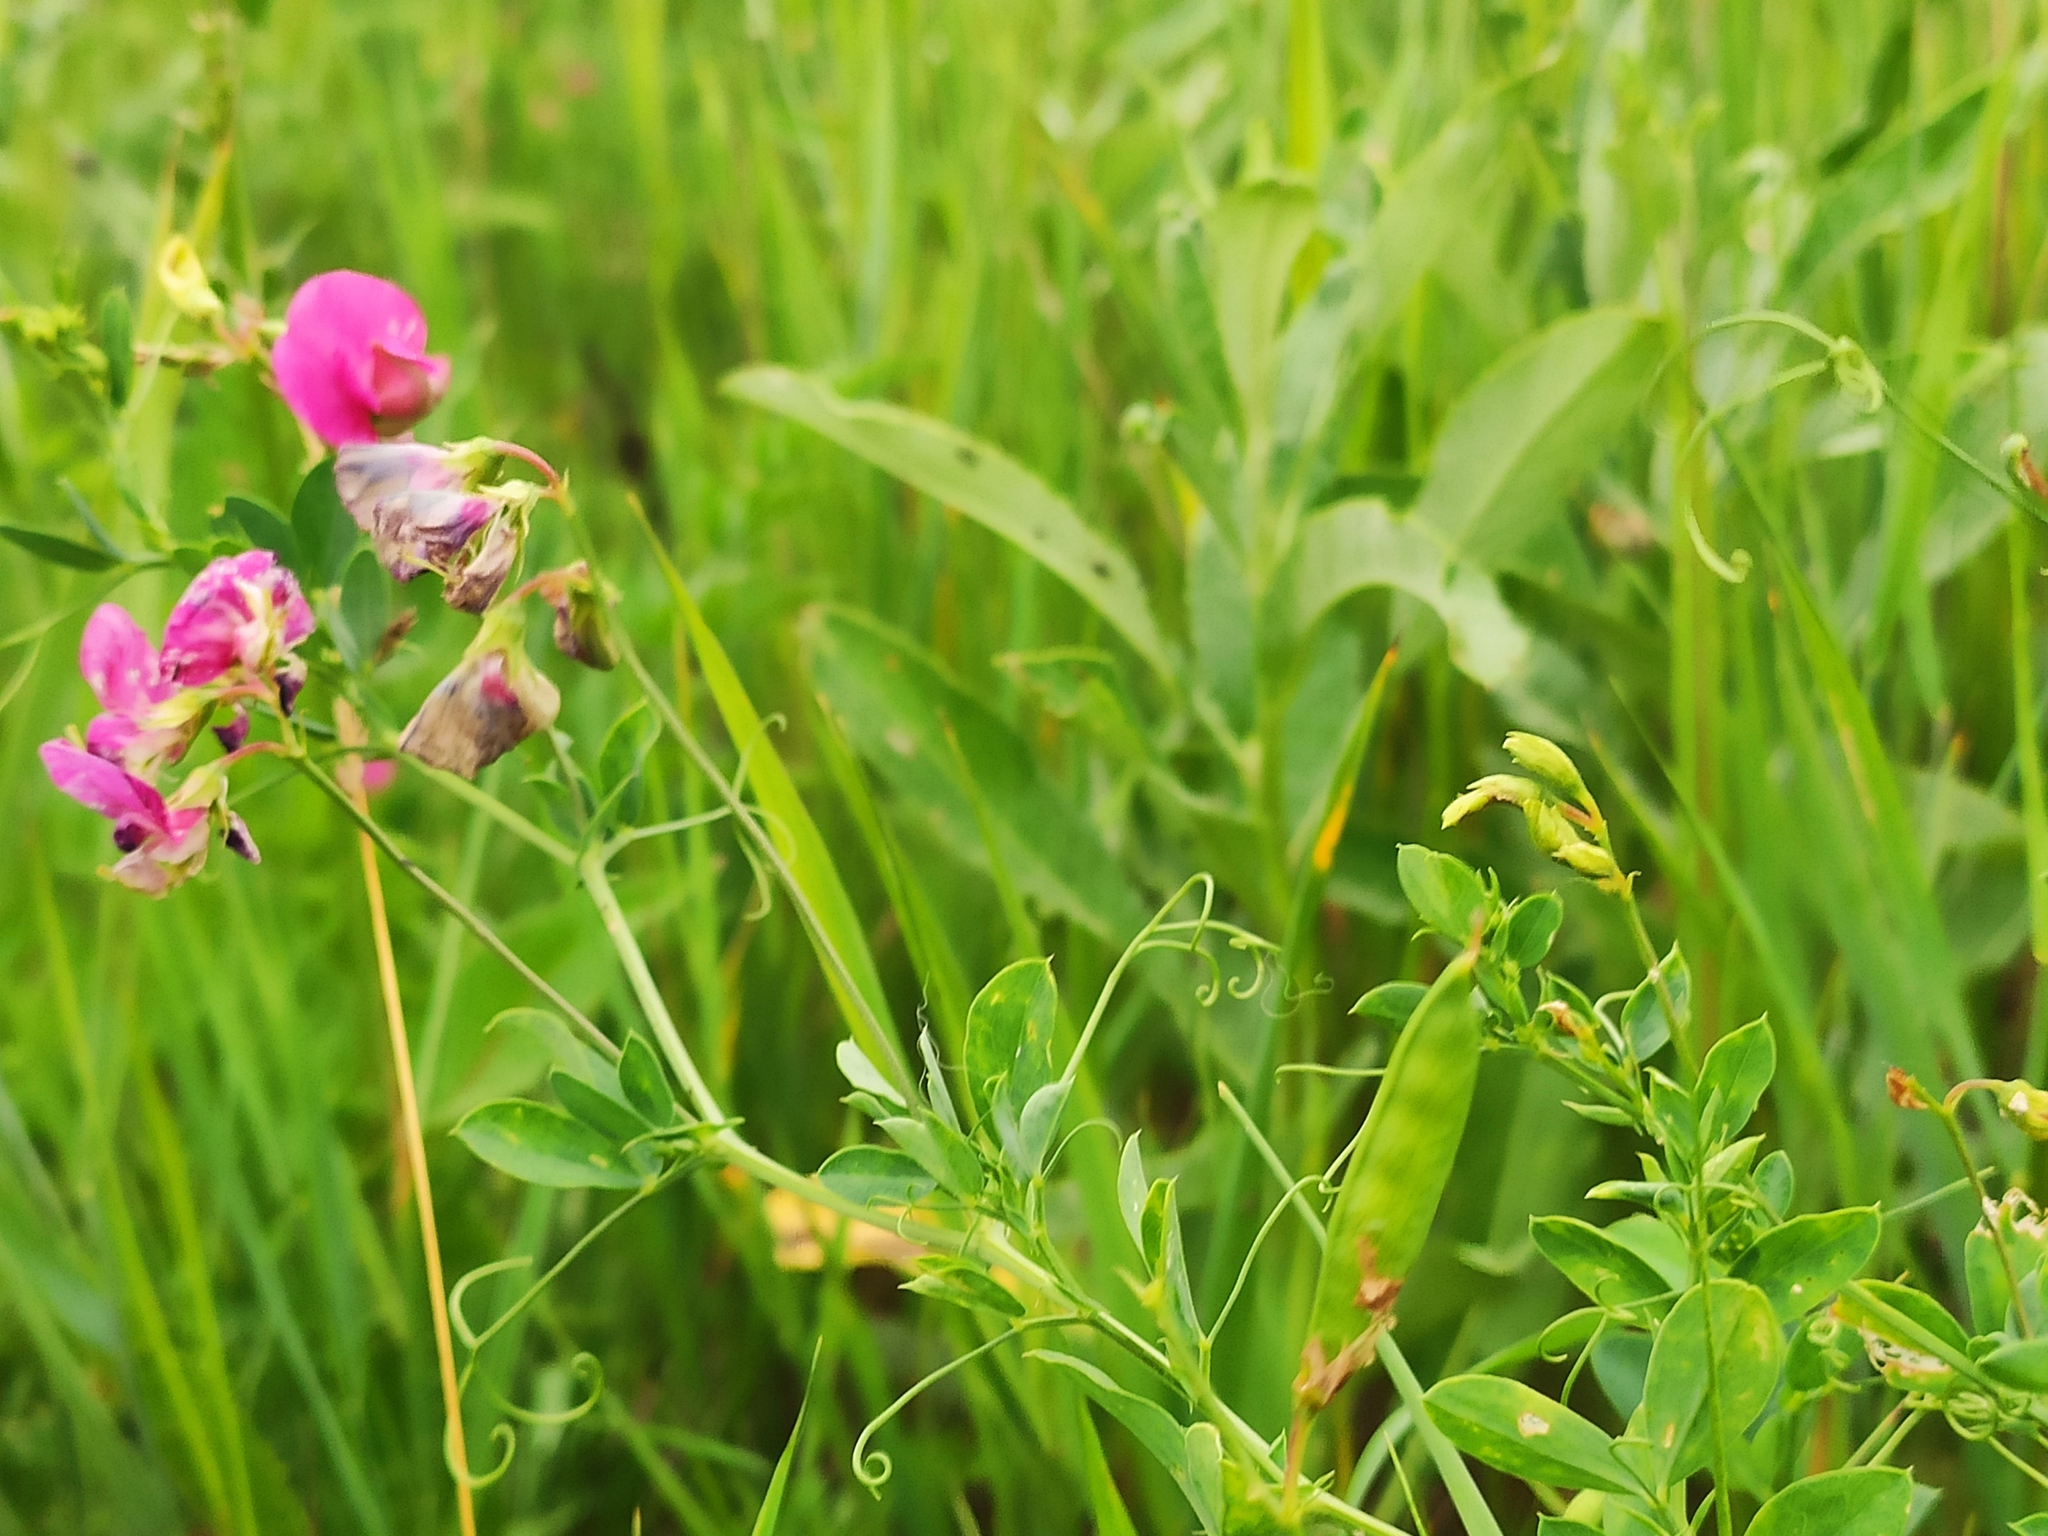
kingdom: Plantae
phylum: Tracheophyta
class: Magnoliopsida
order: Fabales
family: Fabaceae
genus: Lathyrus
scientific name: Lathyrus tuberosus
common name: Tuberous pea
